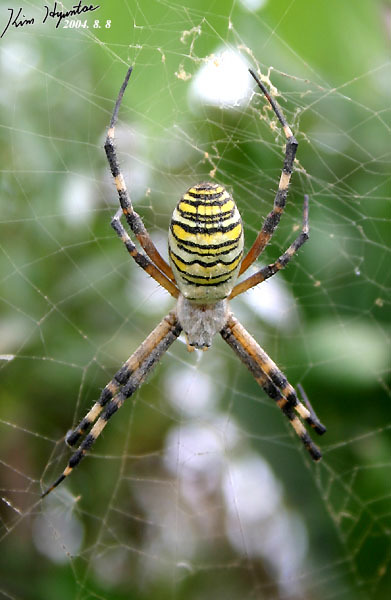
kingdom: Animalia
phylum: Arthropoda
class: Arachnida
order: Araneae
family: Araneidae
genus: Argiope
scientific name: Argiope bruennichi
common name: Wasp spider
